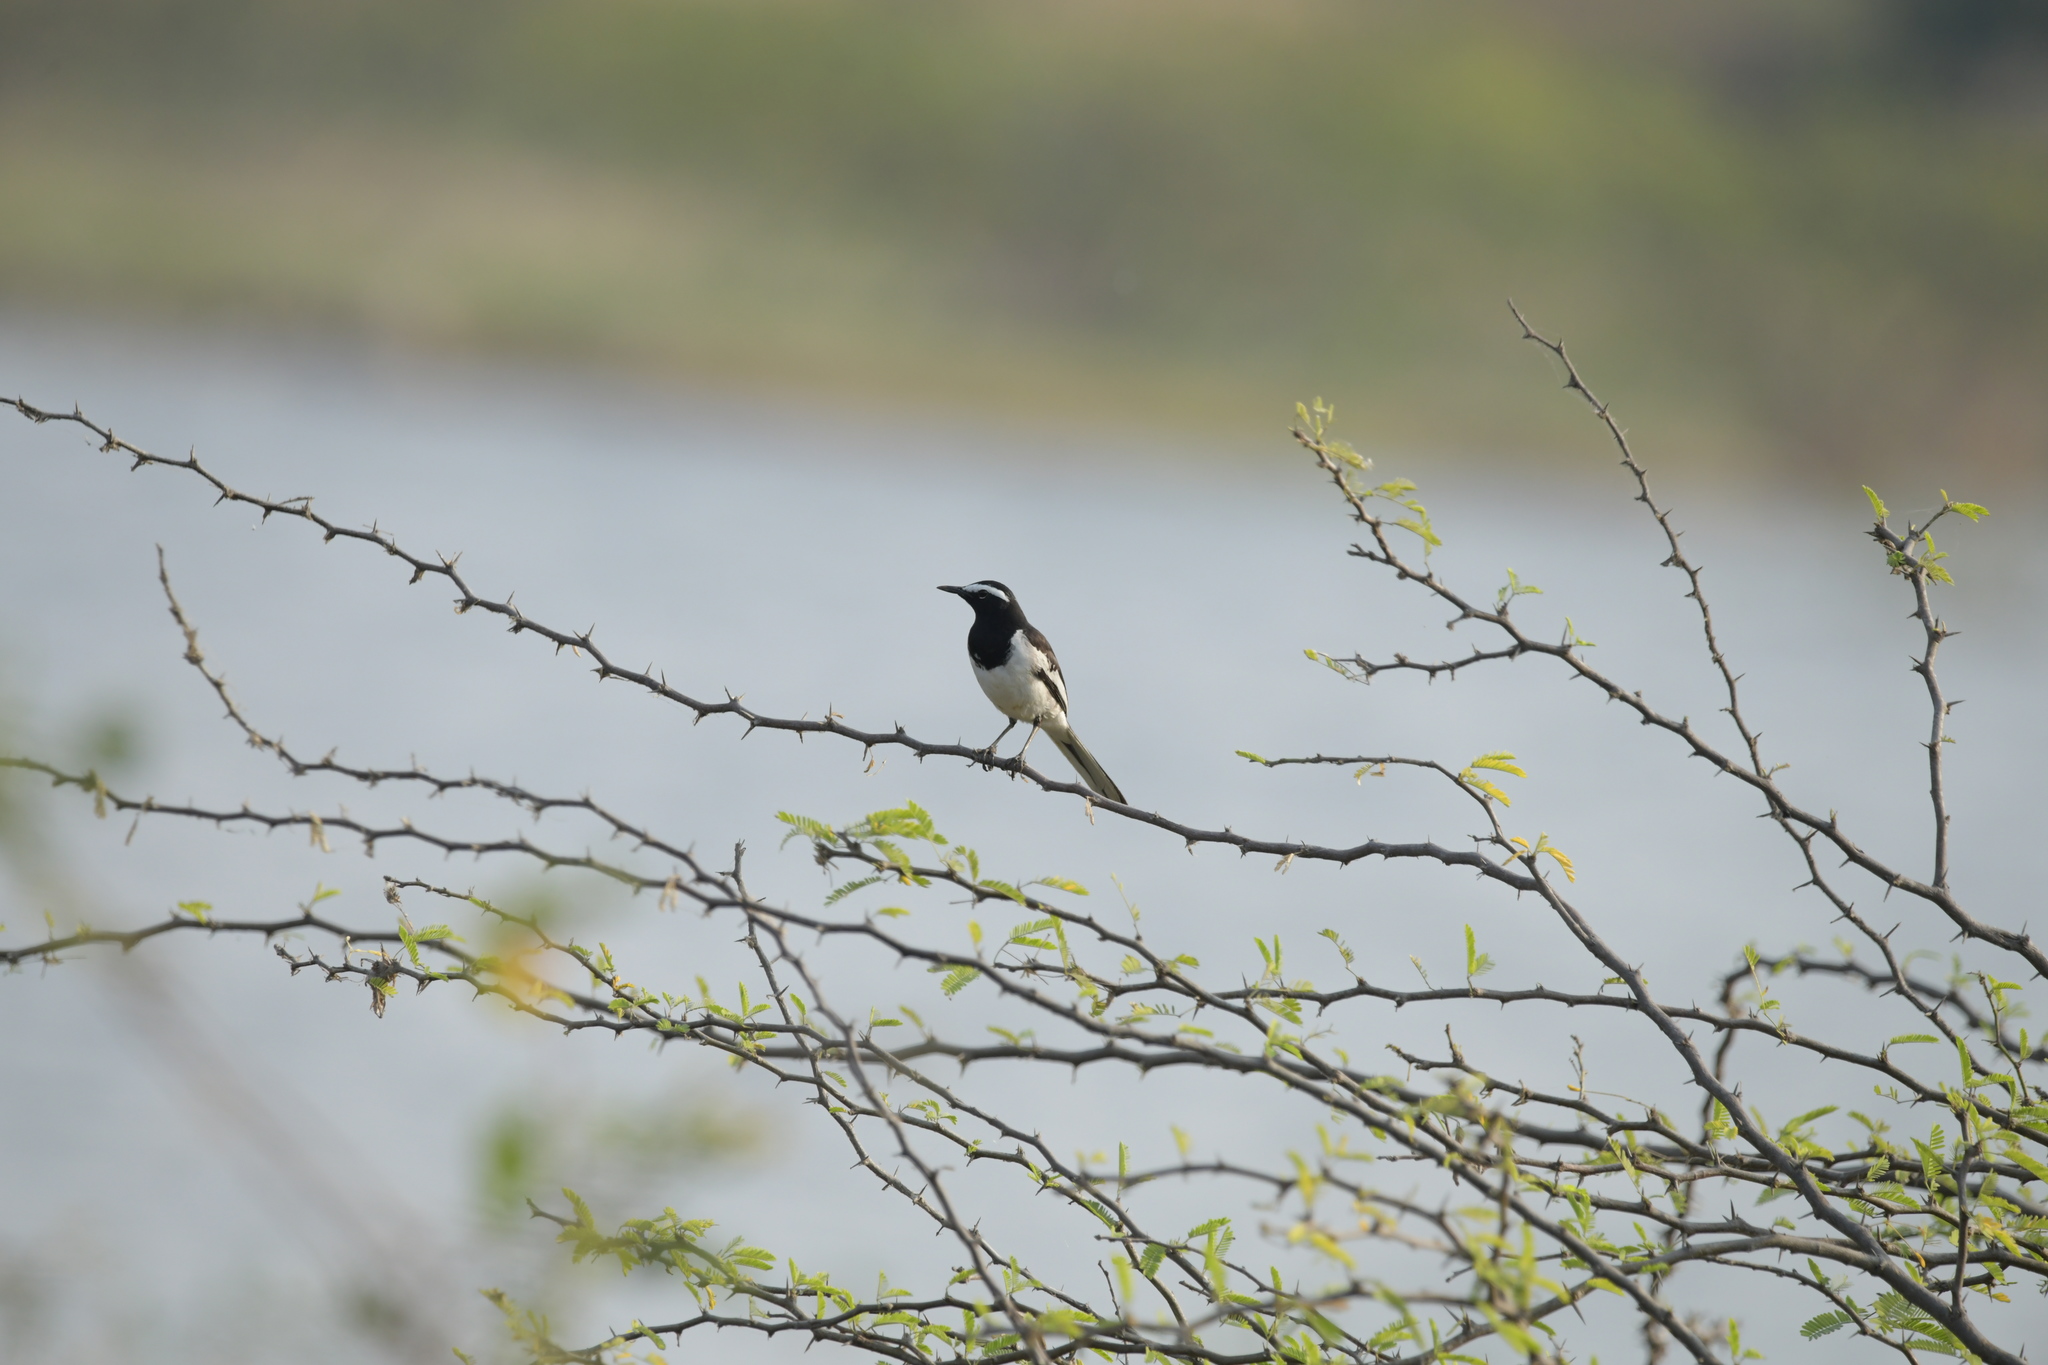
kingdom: Animalia
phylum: Chordata
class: Aves
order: Passeriformes
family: Motacillidae
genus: Motacilla
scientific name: Motacilla maderaspatensis
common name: White-browed wagtail
